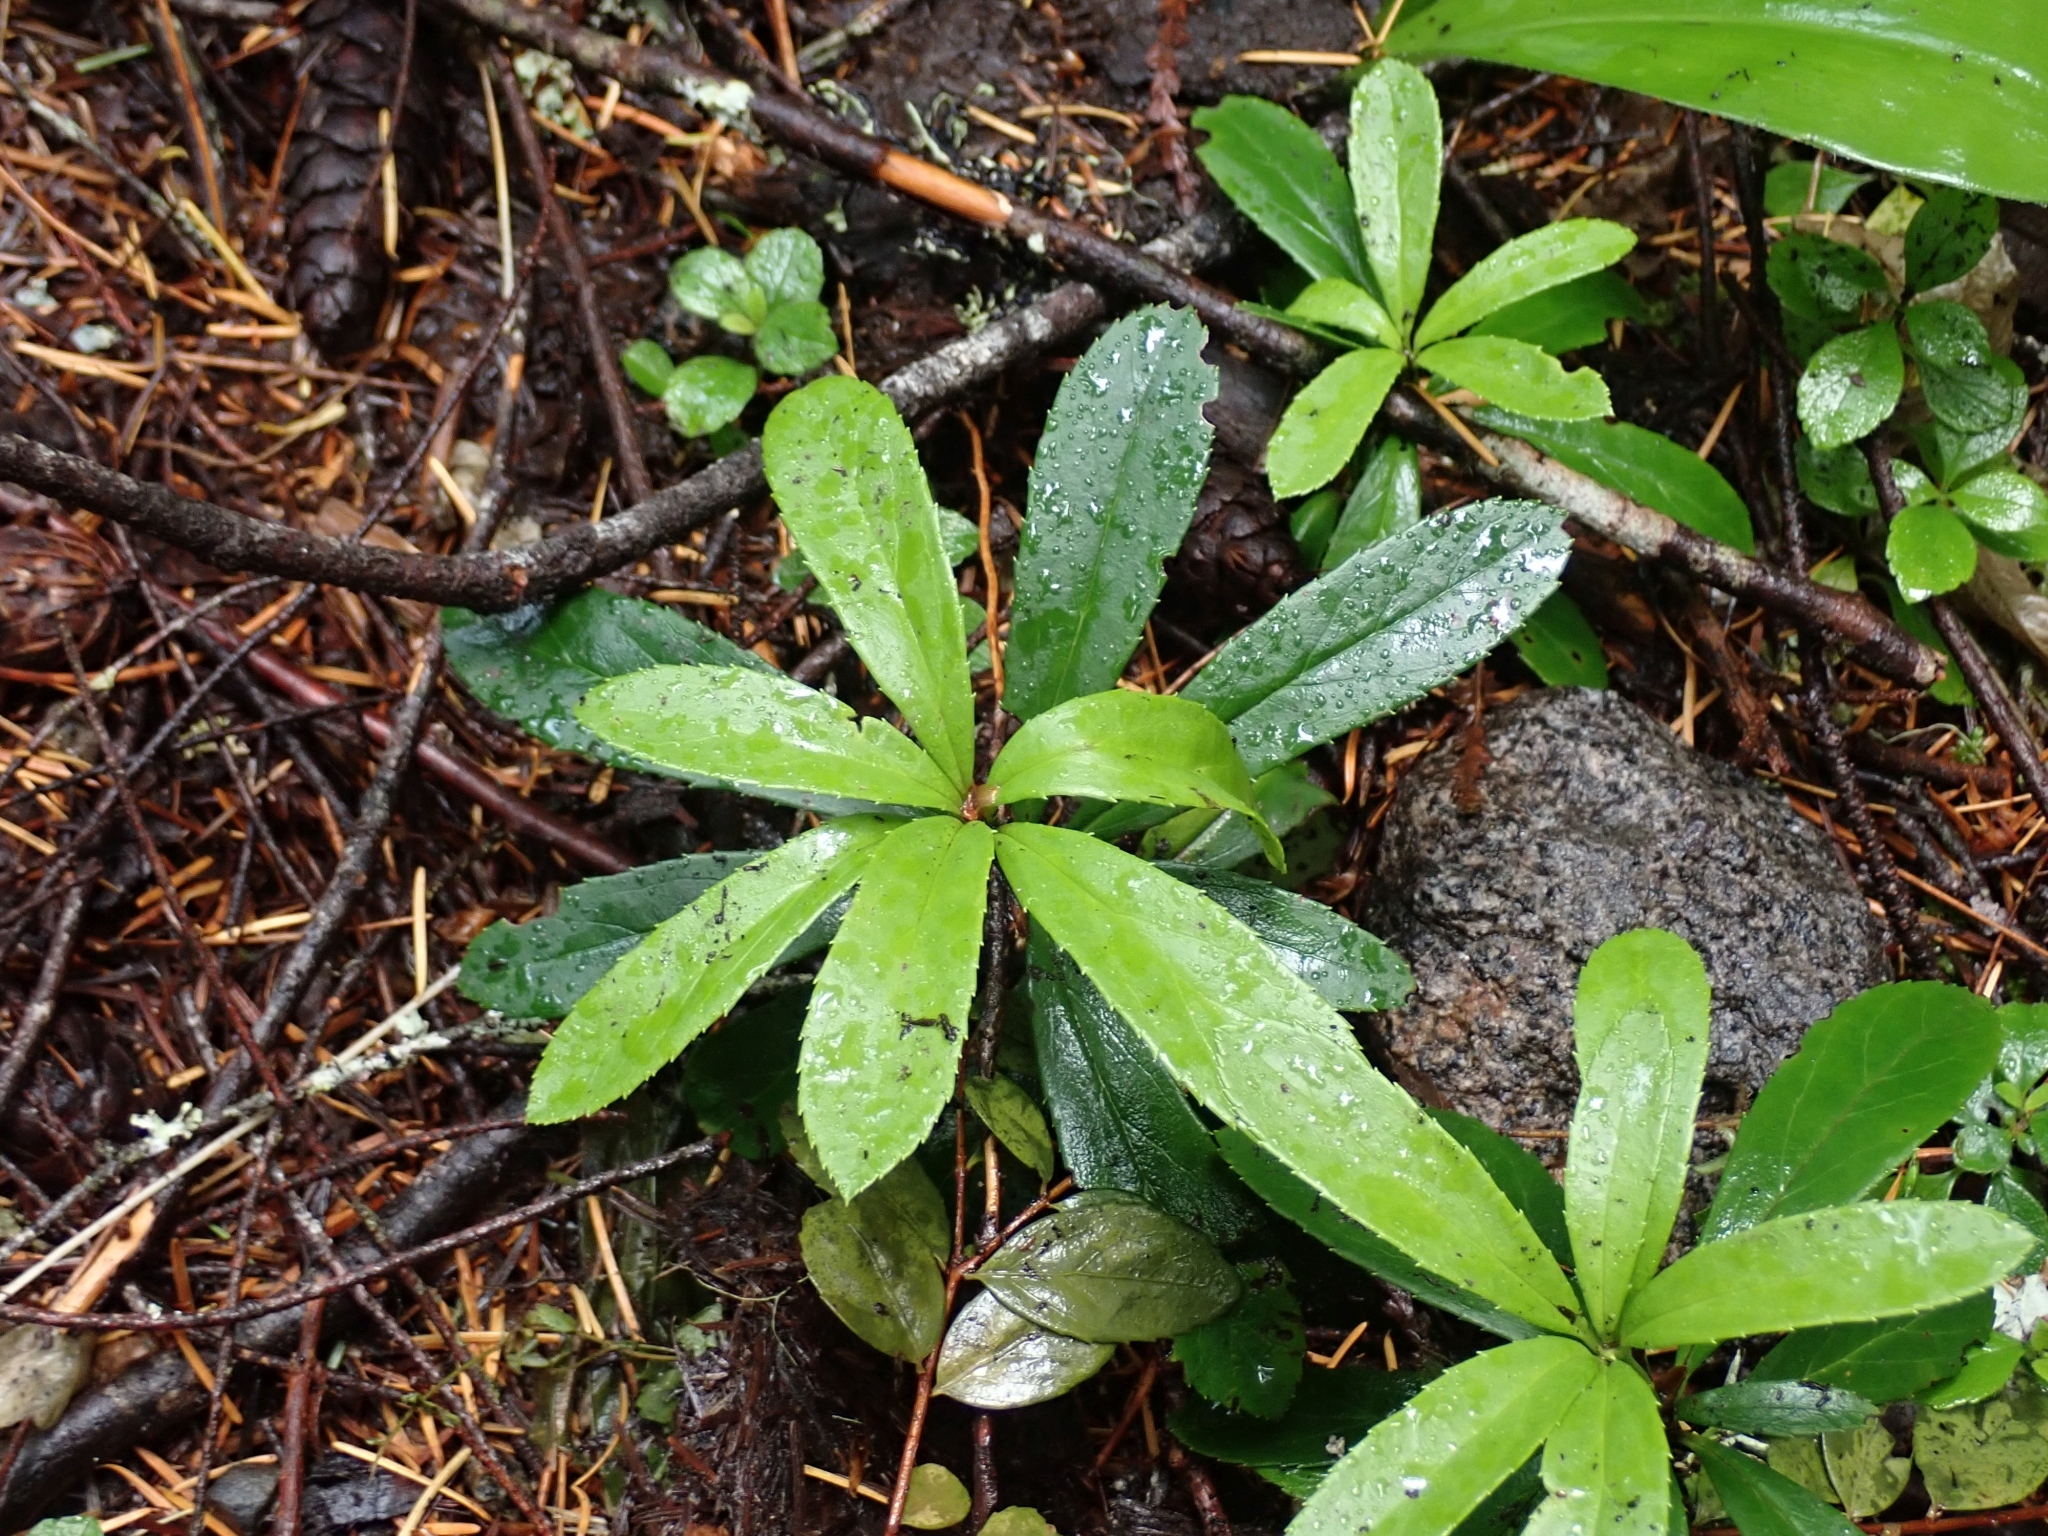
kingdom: Plantae
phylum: Tracheophyta
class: Magnoliopsida
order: Ericales
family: Ericaceae
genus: Chimaphila
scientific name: Chimaphila umbellata
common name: Pipsissewa
